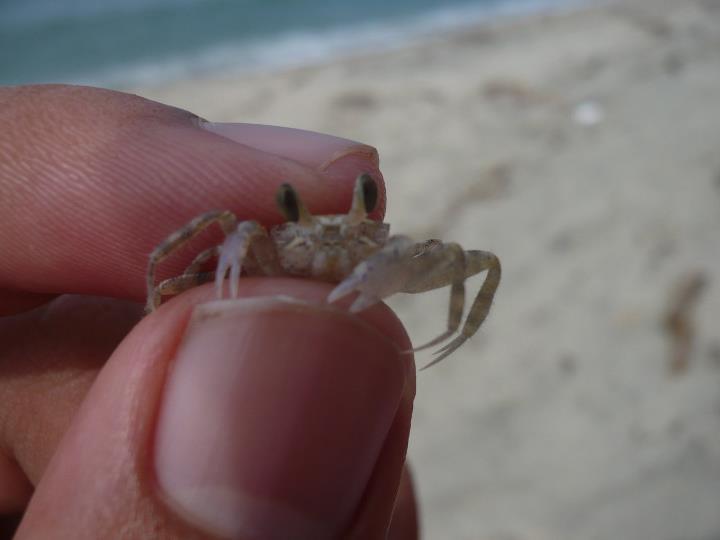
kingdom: Animalia
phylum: Arthropoda
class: Malacostraca
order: Decapoda
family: Ocypodidae
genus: Ocypode
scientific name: Ocypode quadrata
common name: Ghost crab
